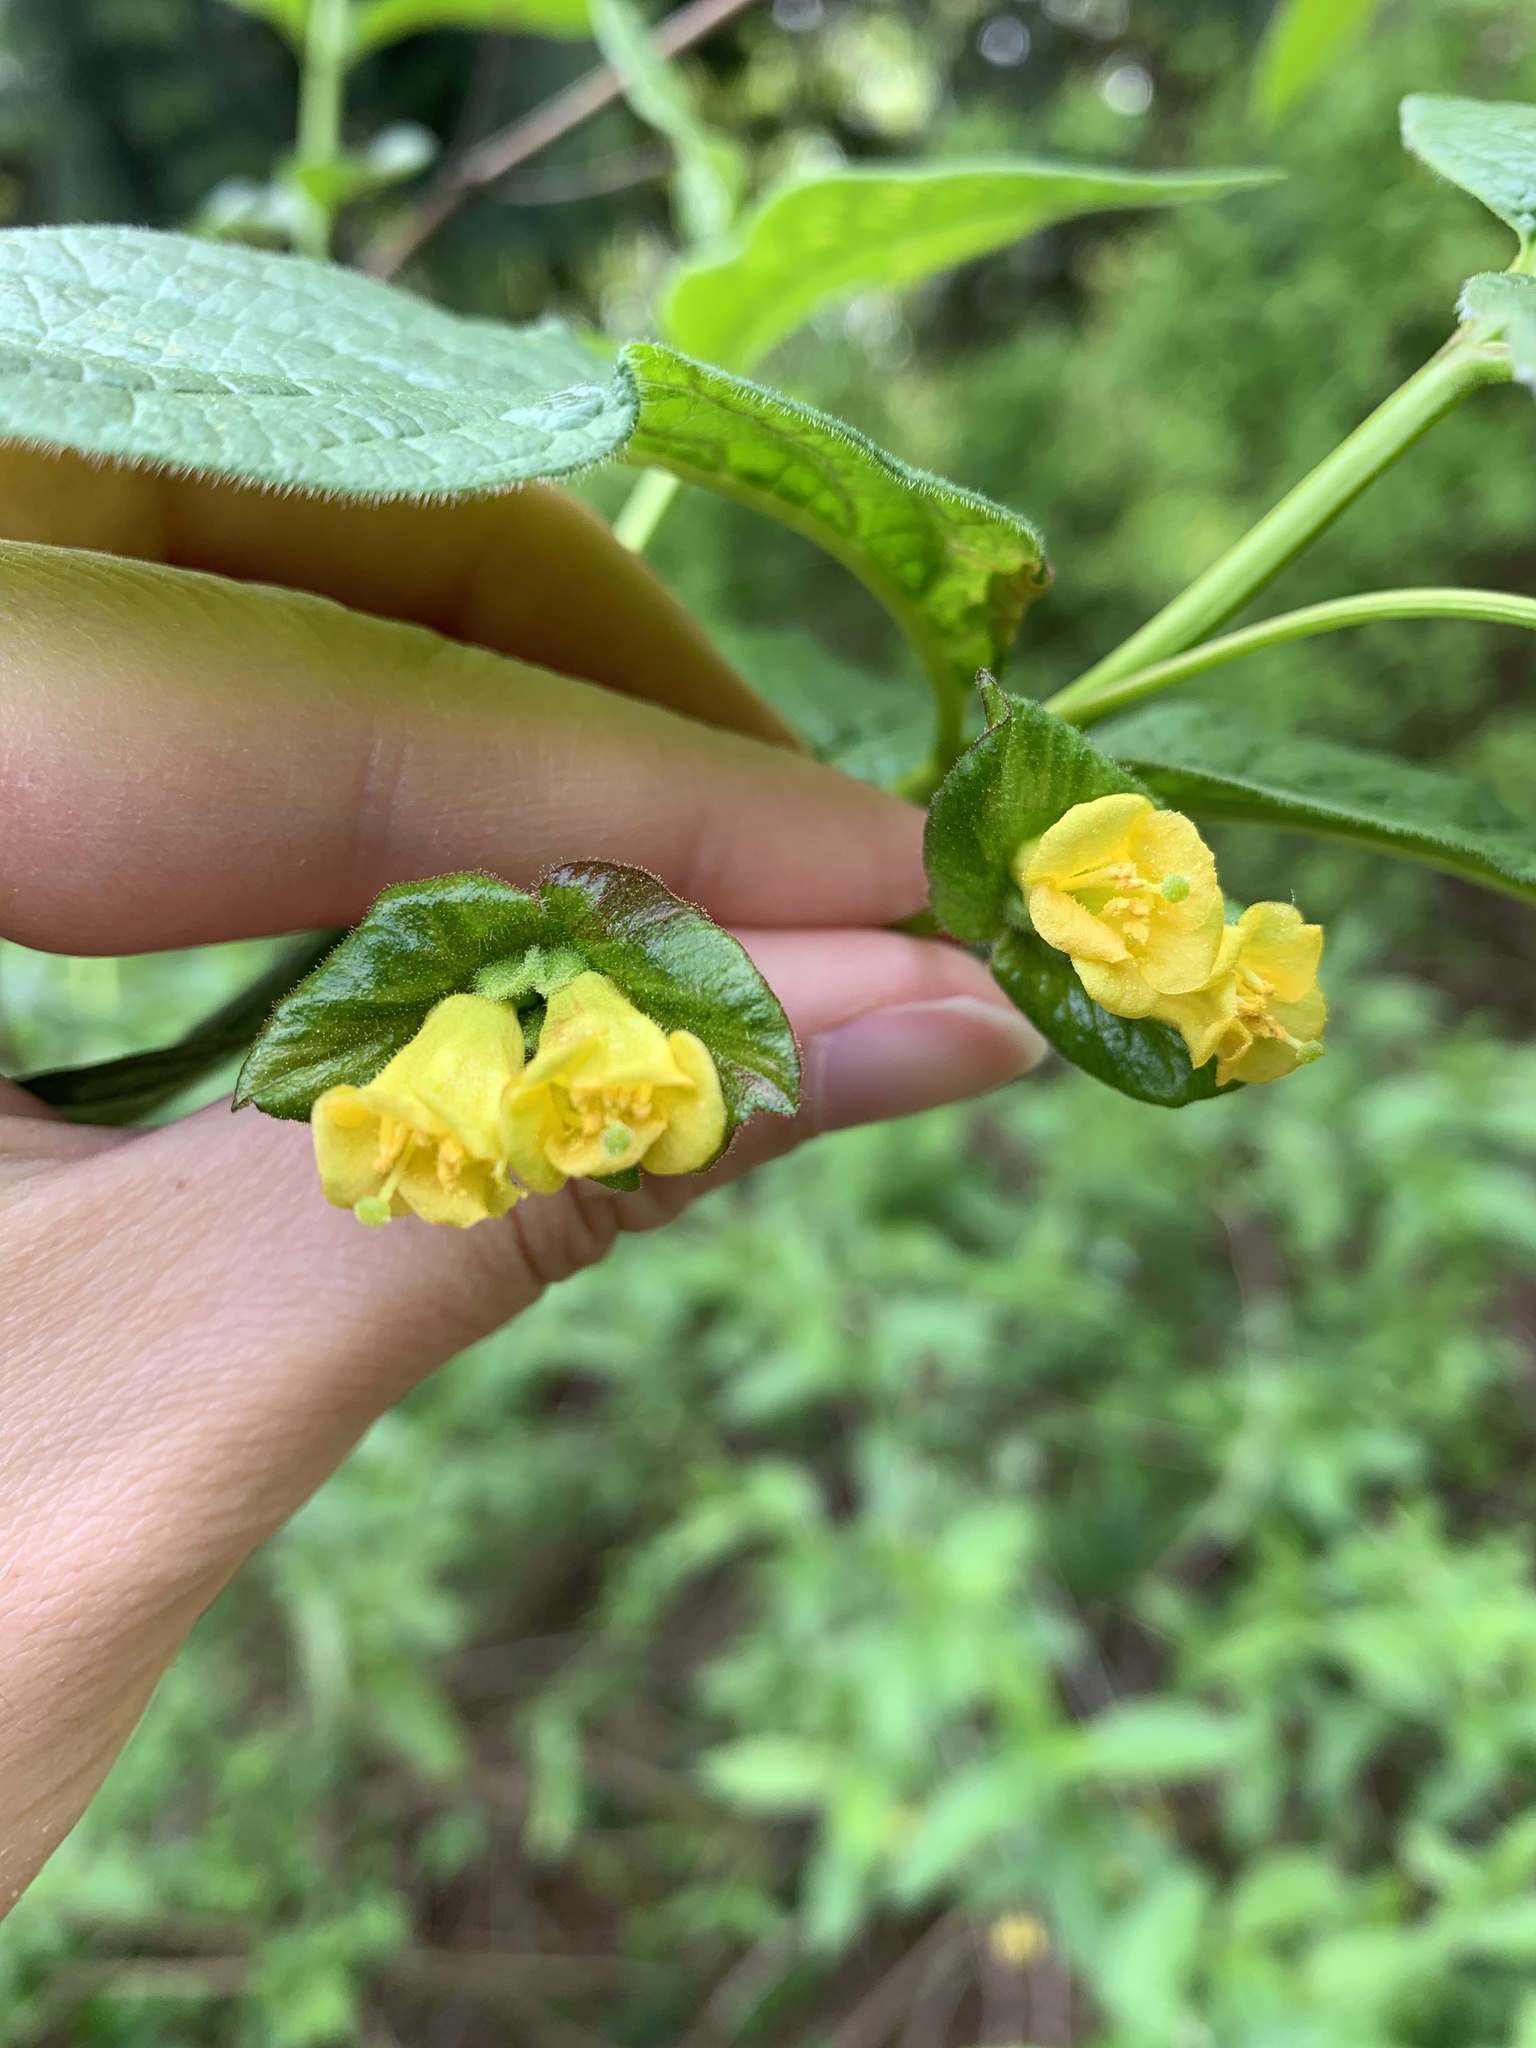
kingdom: Plantae
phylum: Tracheophyta
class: Magnoliopsida
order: Dipsacales
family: Caprifoliaceae
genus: Lonicera
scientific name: Lonicera involucrata
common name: Californian honeysuckle
